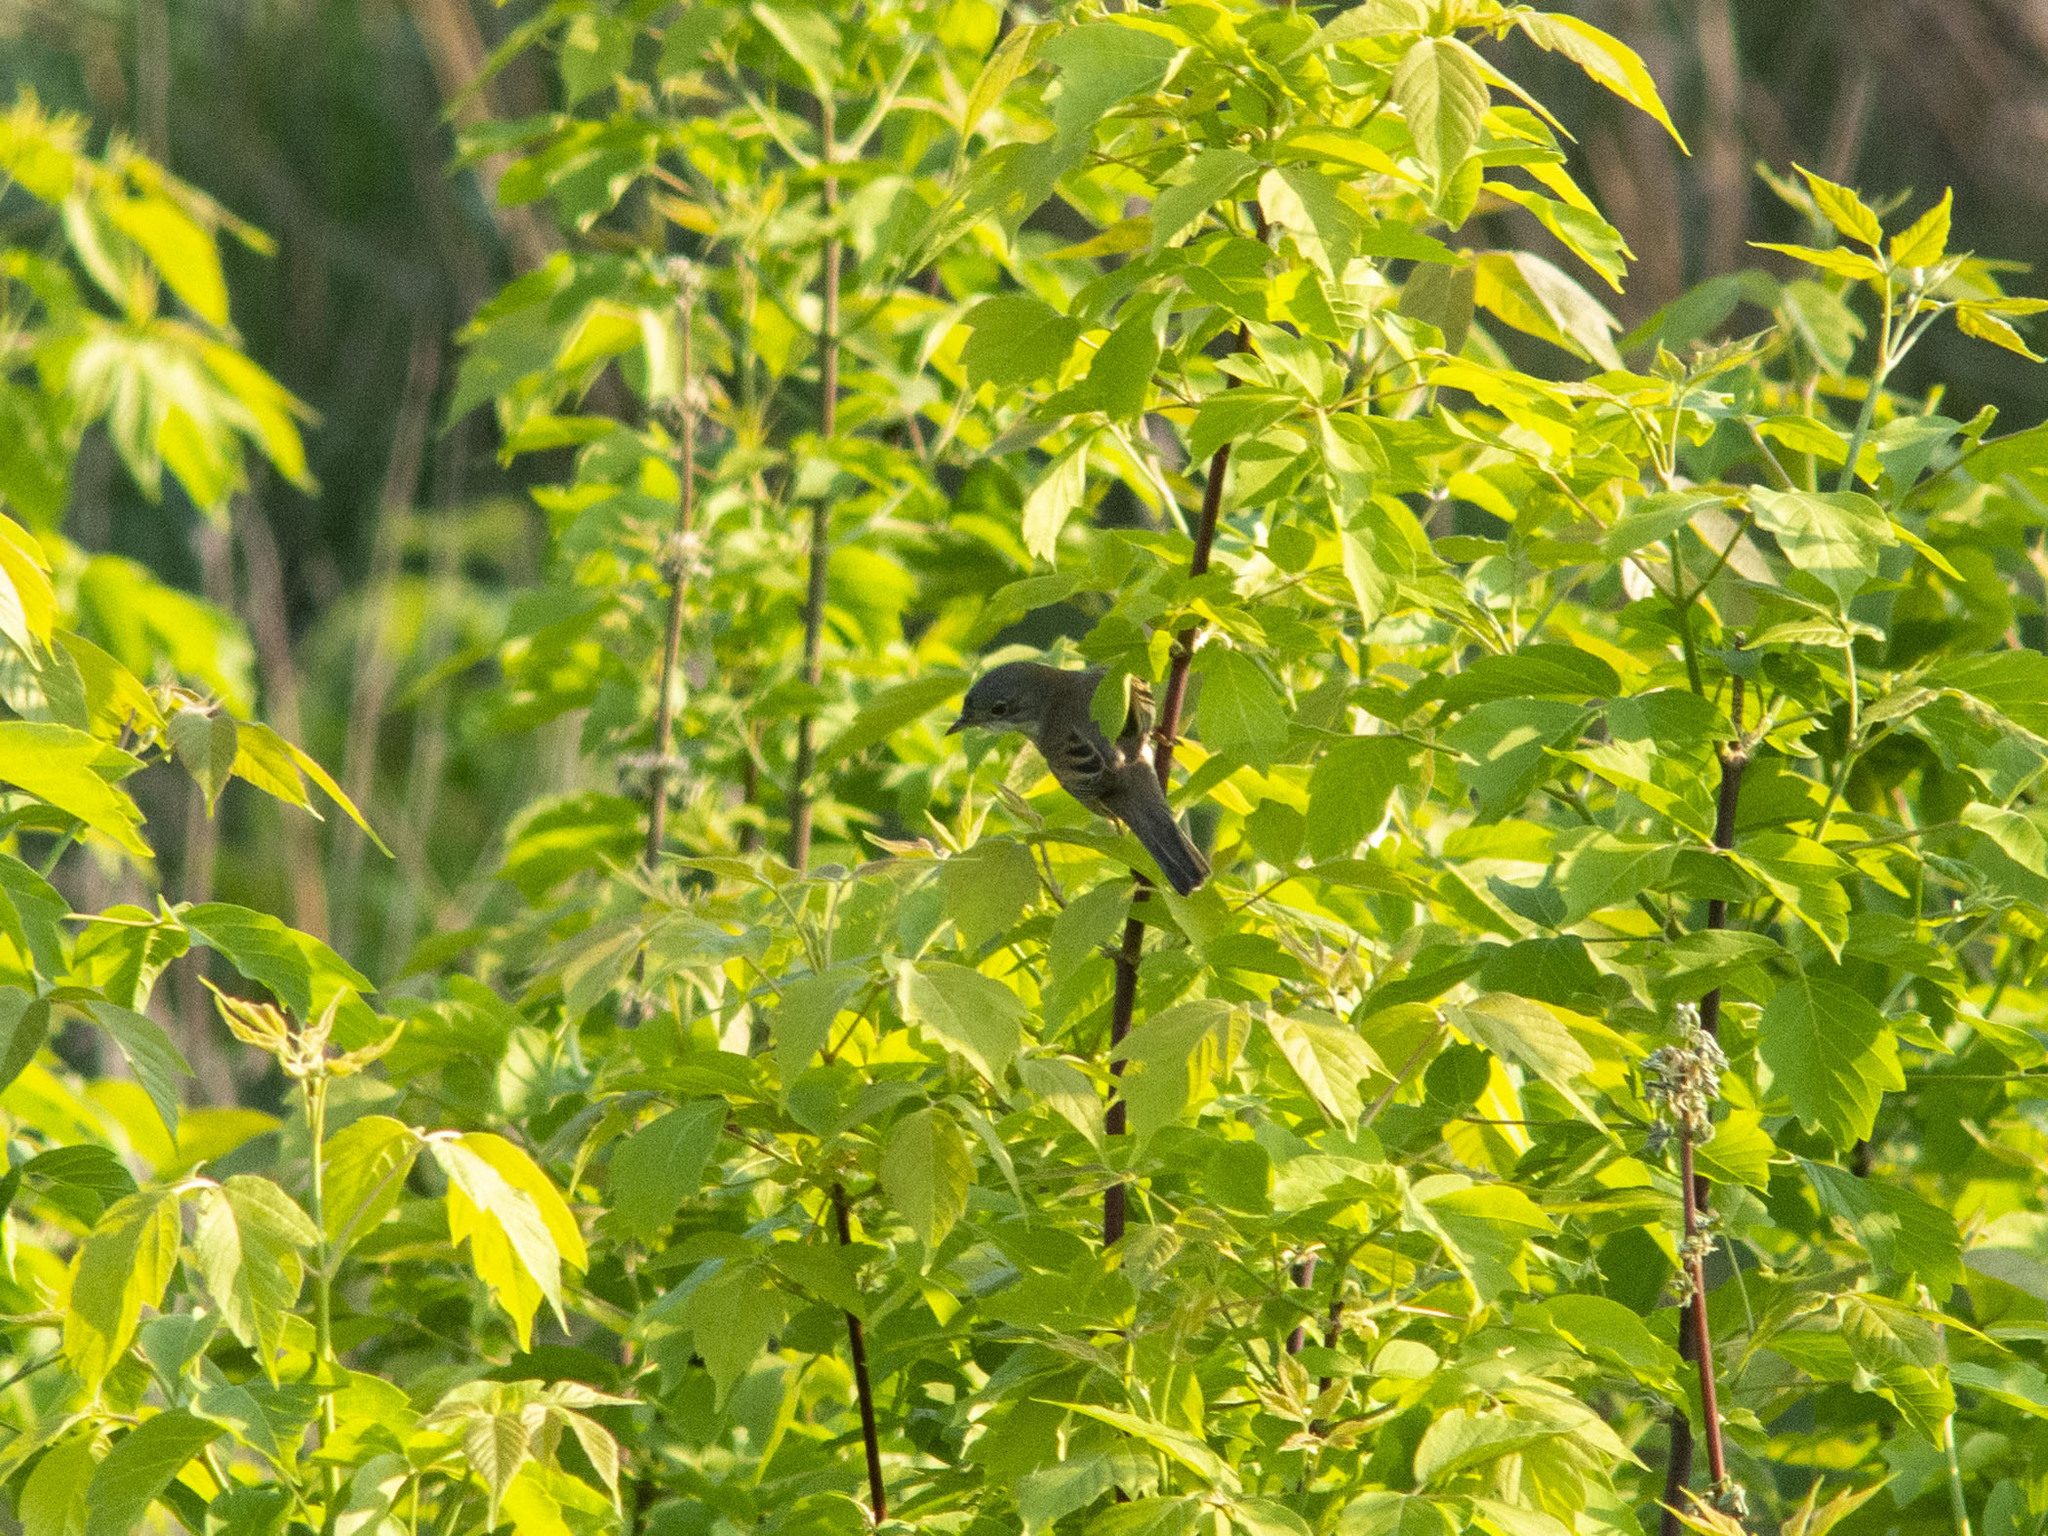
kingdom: Animalia
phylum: Chordata
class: Aves
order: Passeriformes
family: Sylviidae
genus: Sylvia
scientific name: Sylvia communis
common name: Common whitethroat
